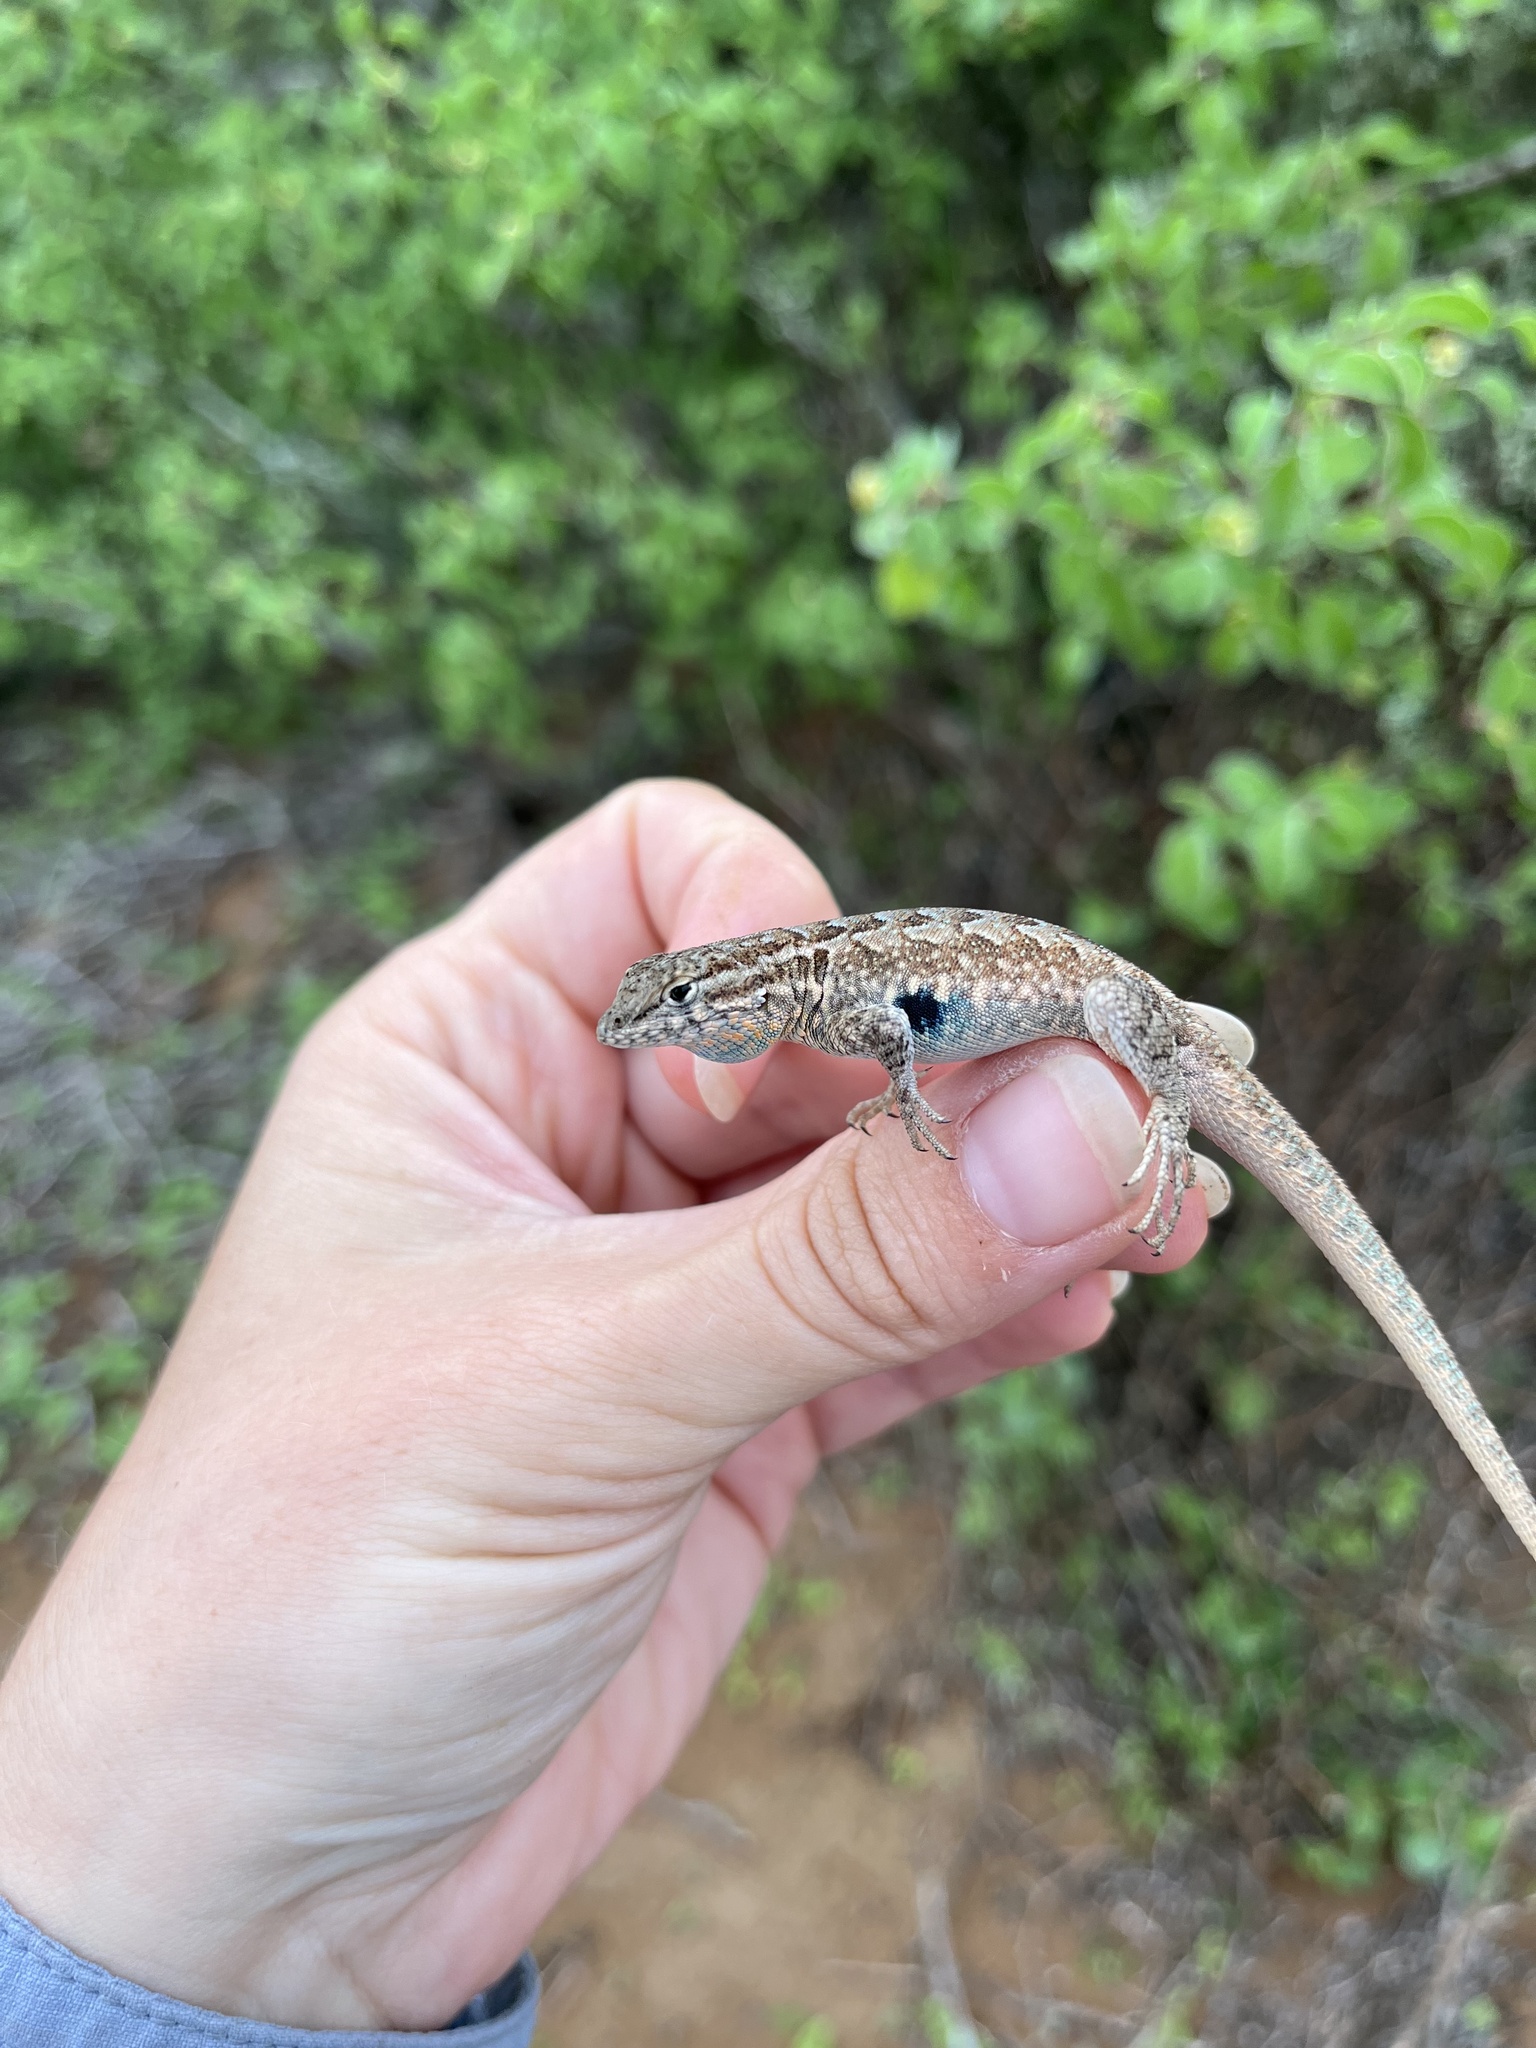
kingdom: Animalia
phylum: Chordata
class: Squamata
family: Phrynosomatidae
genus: Uta
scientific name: Uta stansburiana
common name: Side-blotched lizard
